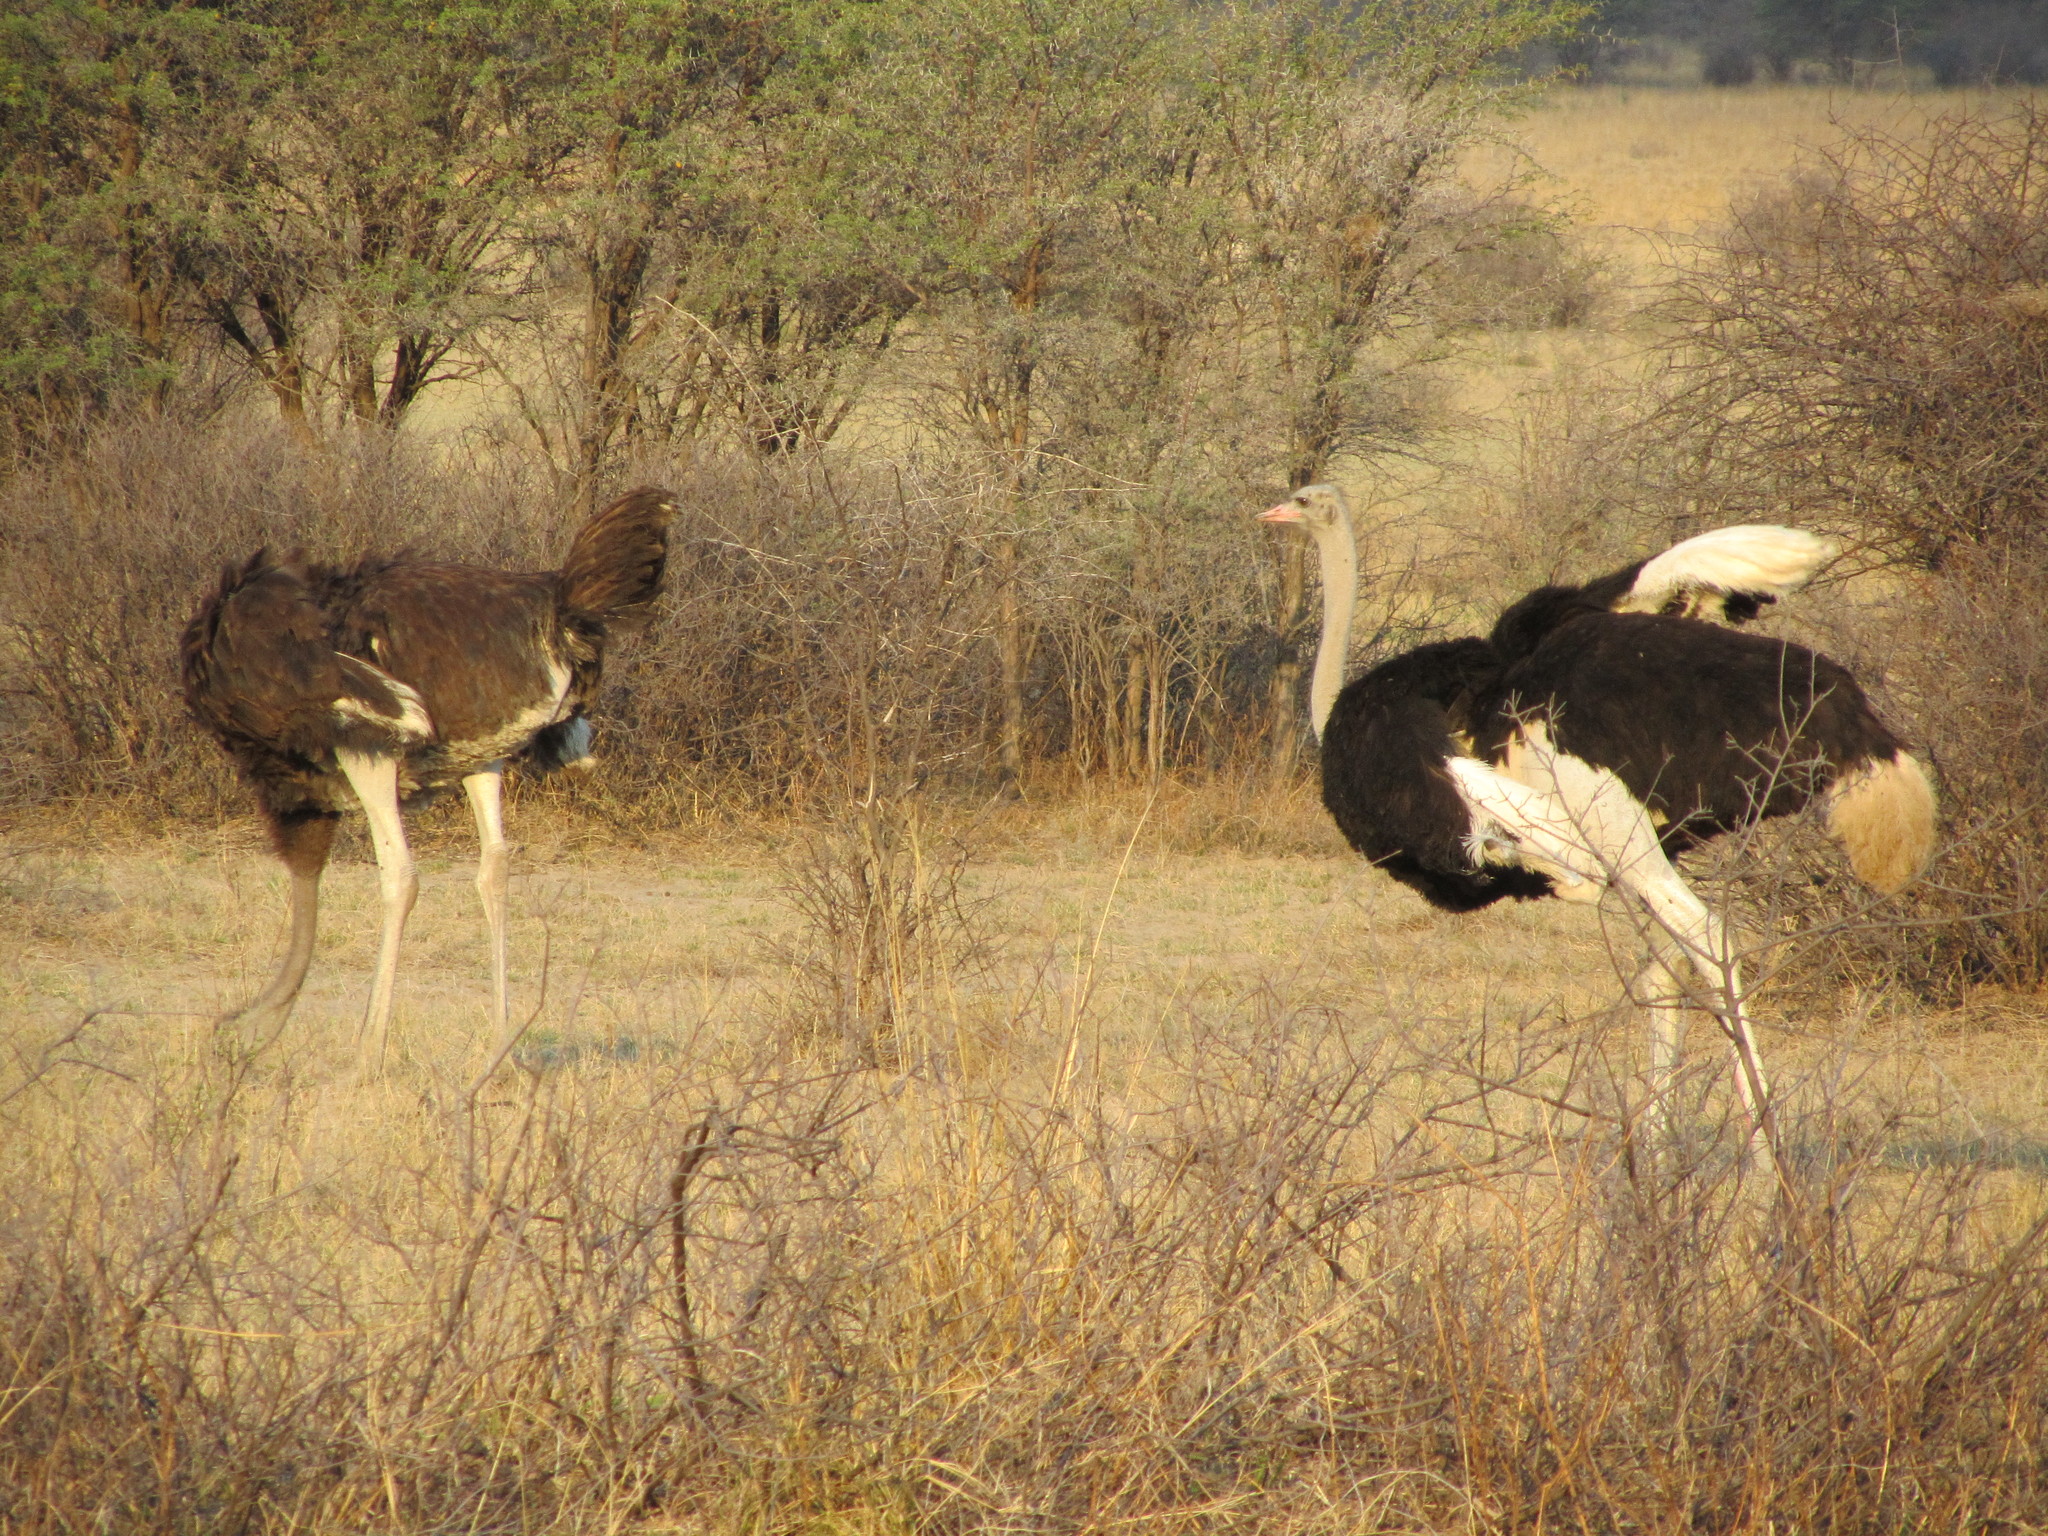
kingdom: Animalia
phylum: Chordata
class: Aves
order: Struthioniformes
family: Struthionidae
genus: Struthio
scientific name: Struthio camelus
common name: Common ostrich
